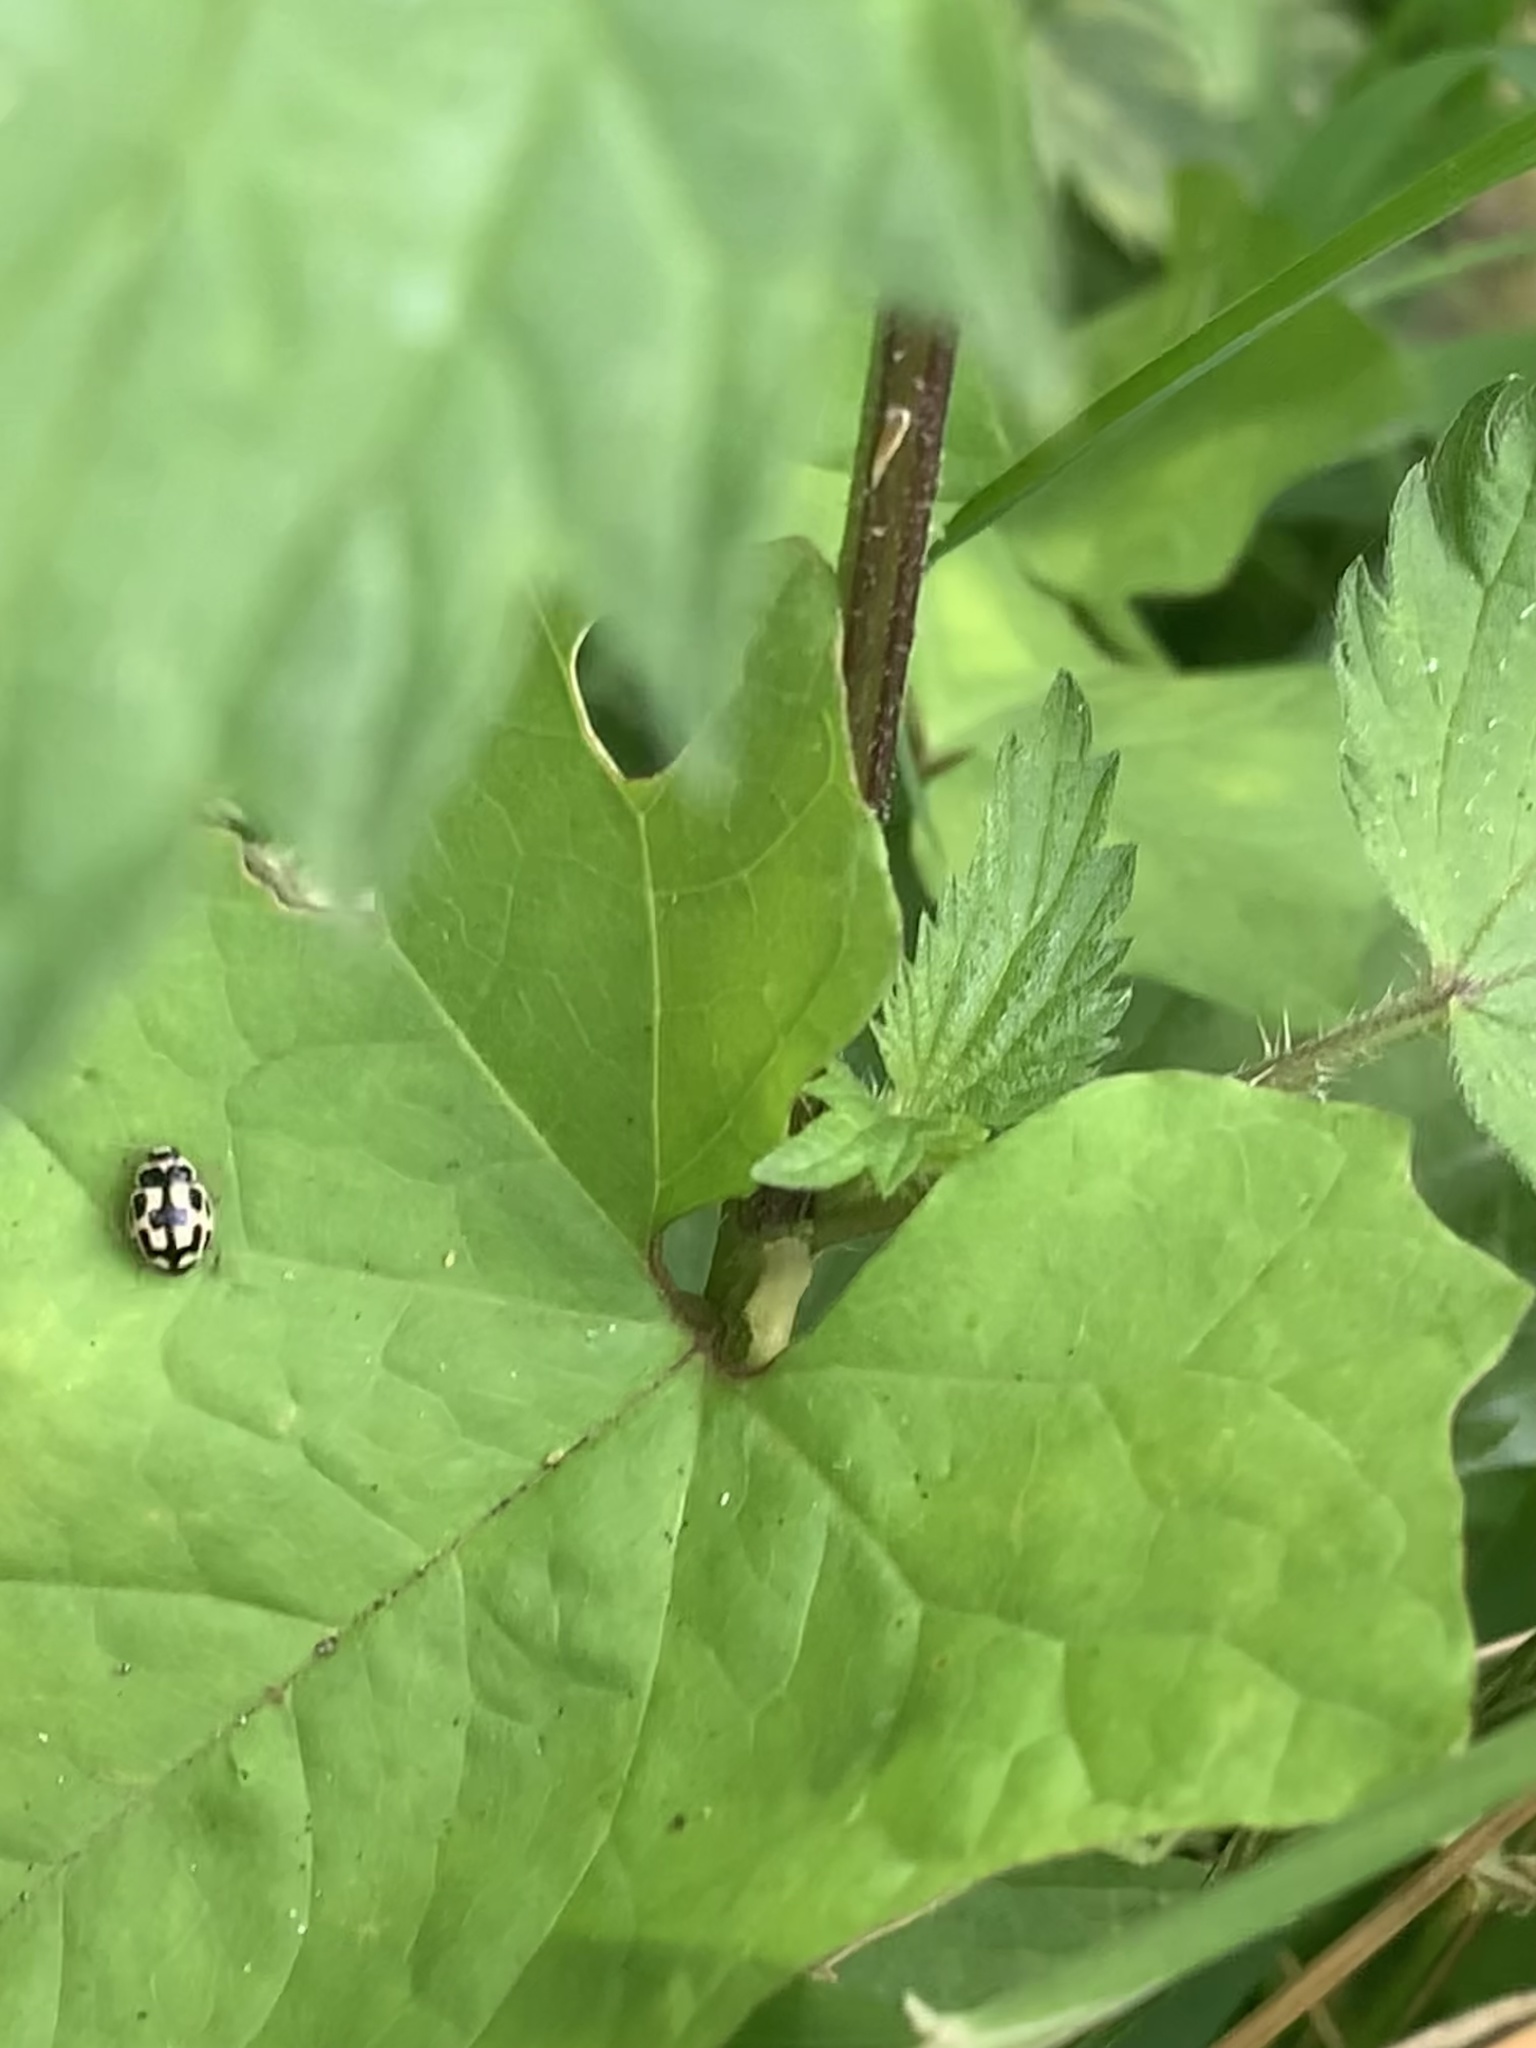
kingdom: Animalia
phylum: Arthropoda
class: Insecta
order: Coleoptera
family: Coccinellidae
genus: Propylaea
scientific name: Propylaea quatuordecimpunctata
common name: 14-spotted ladybird beetle
